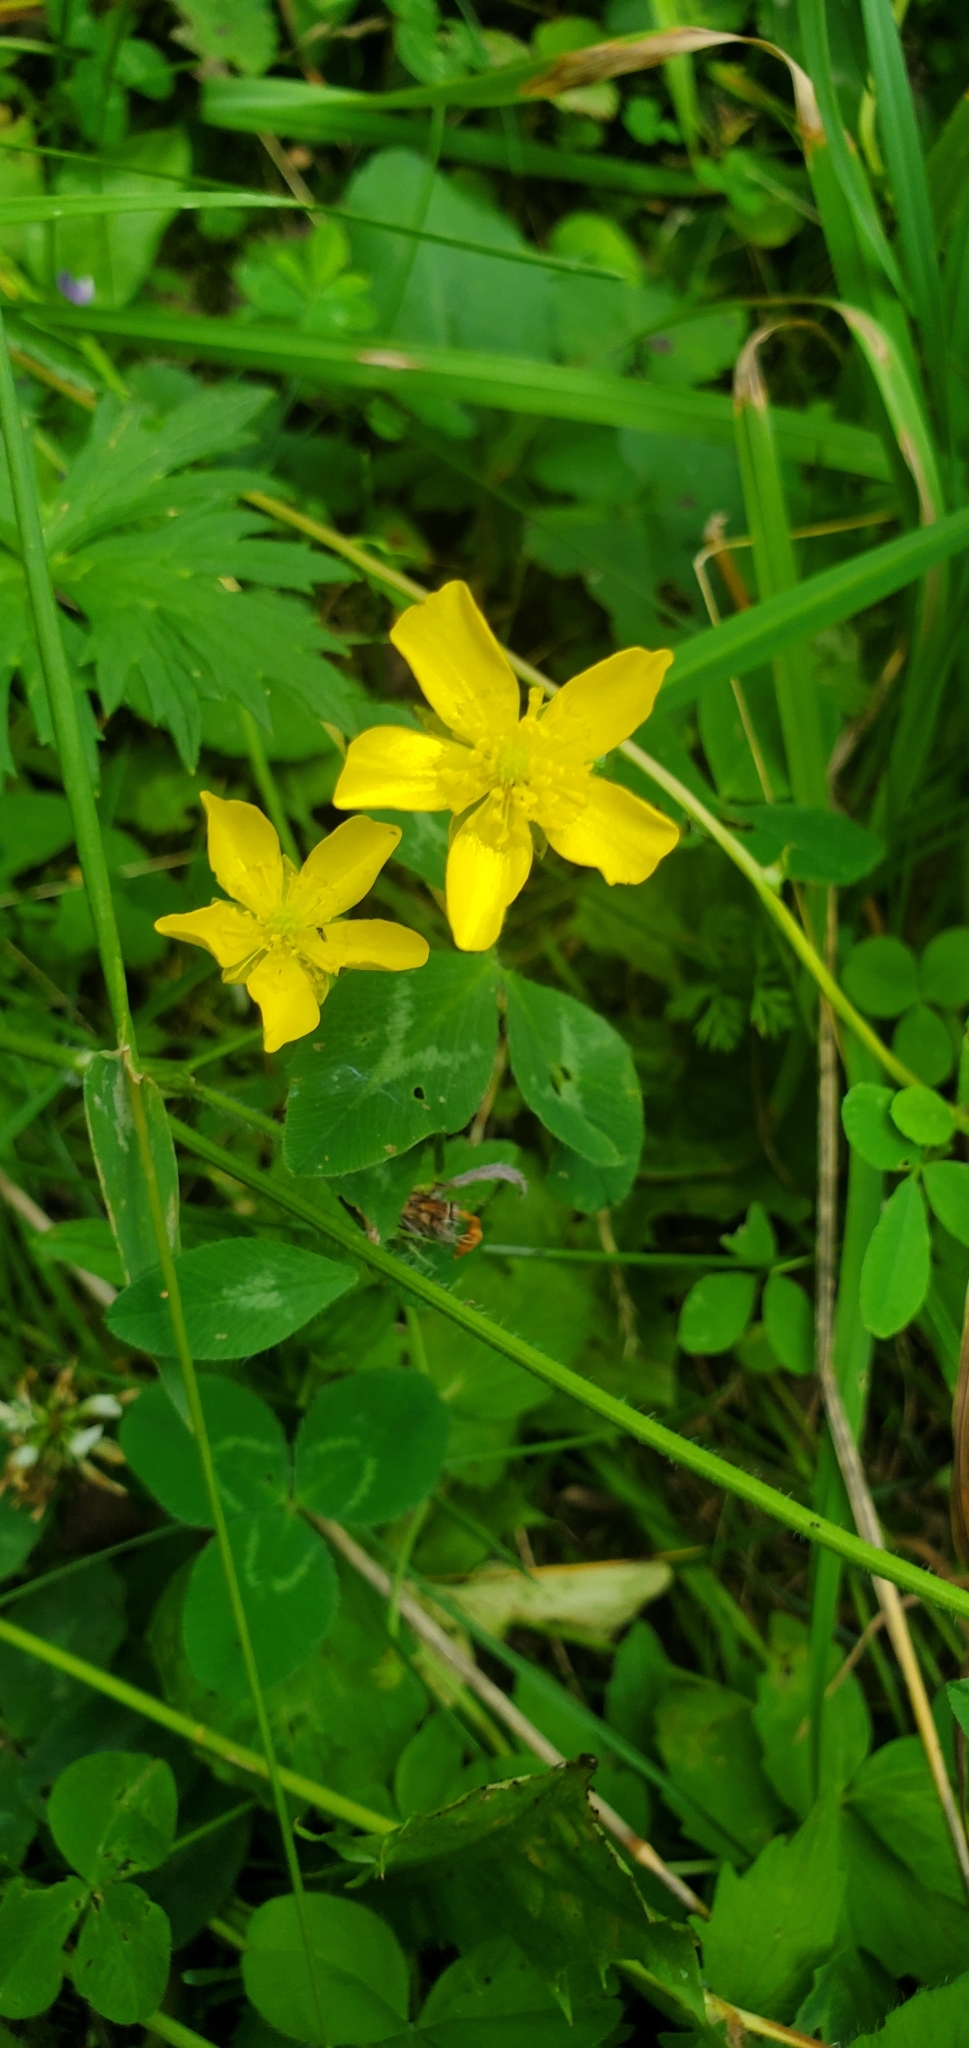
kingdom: Plantae
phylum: Tracheophyta
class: Magnoliopsida
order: Ranunculales
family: Ranunculaceae
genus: Ranunculus
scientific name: Ranunculus acris
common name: Meadow buttercup
